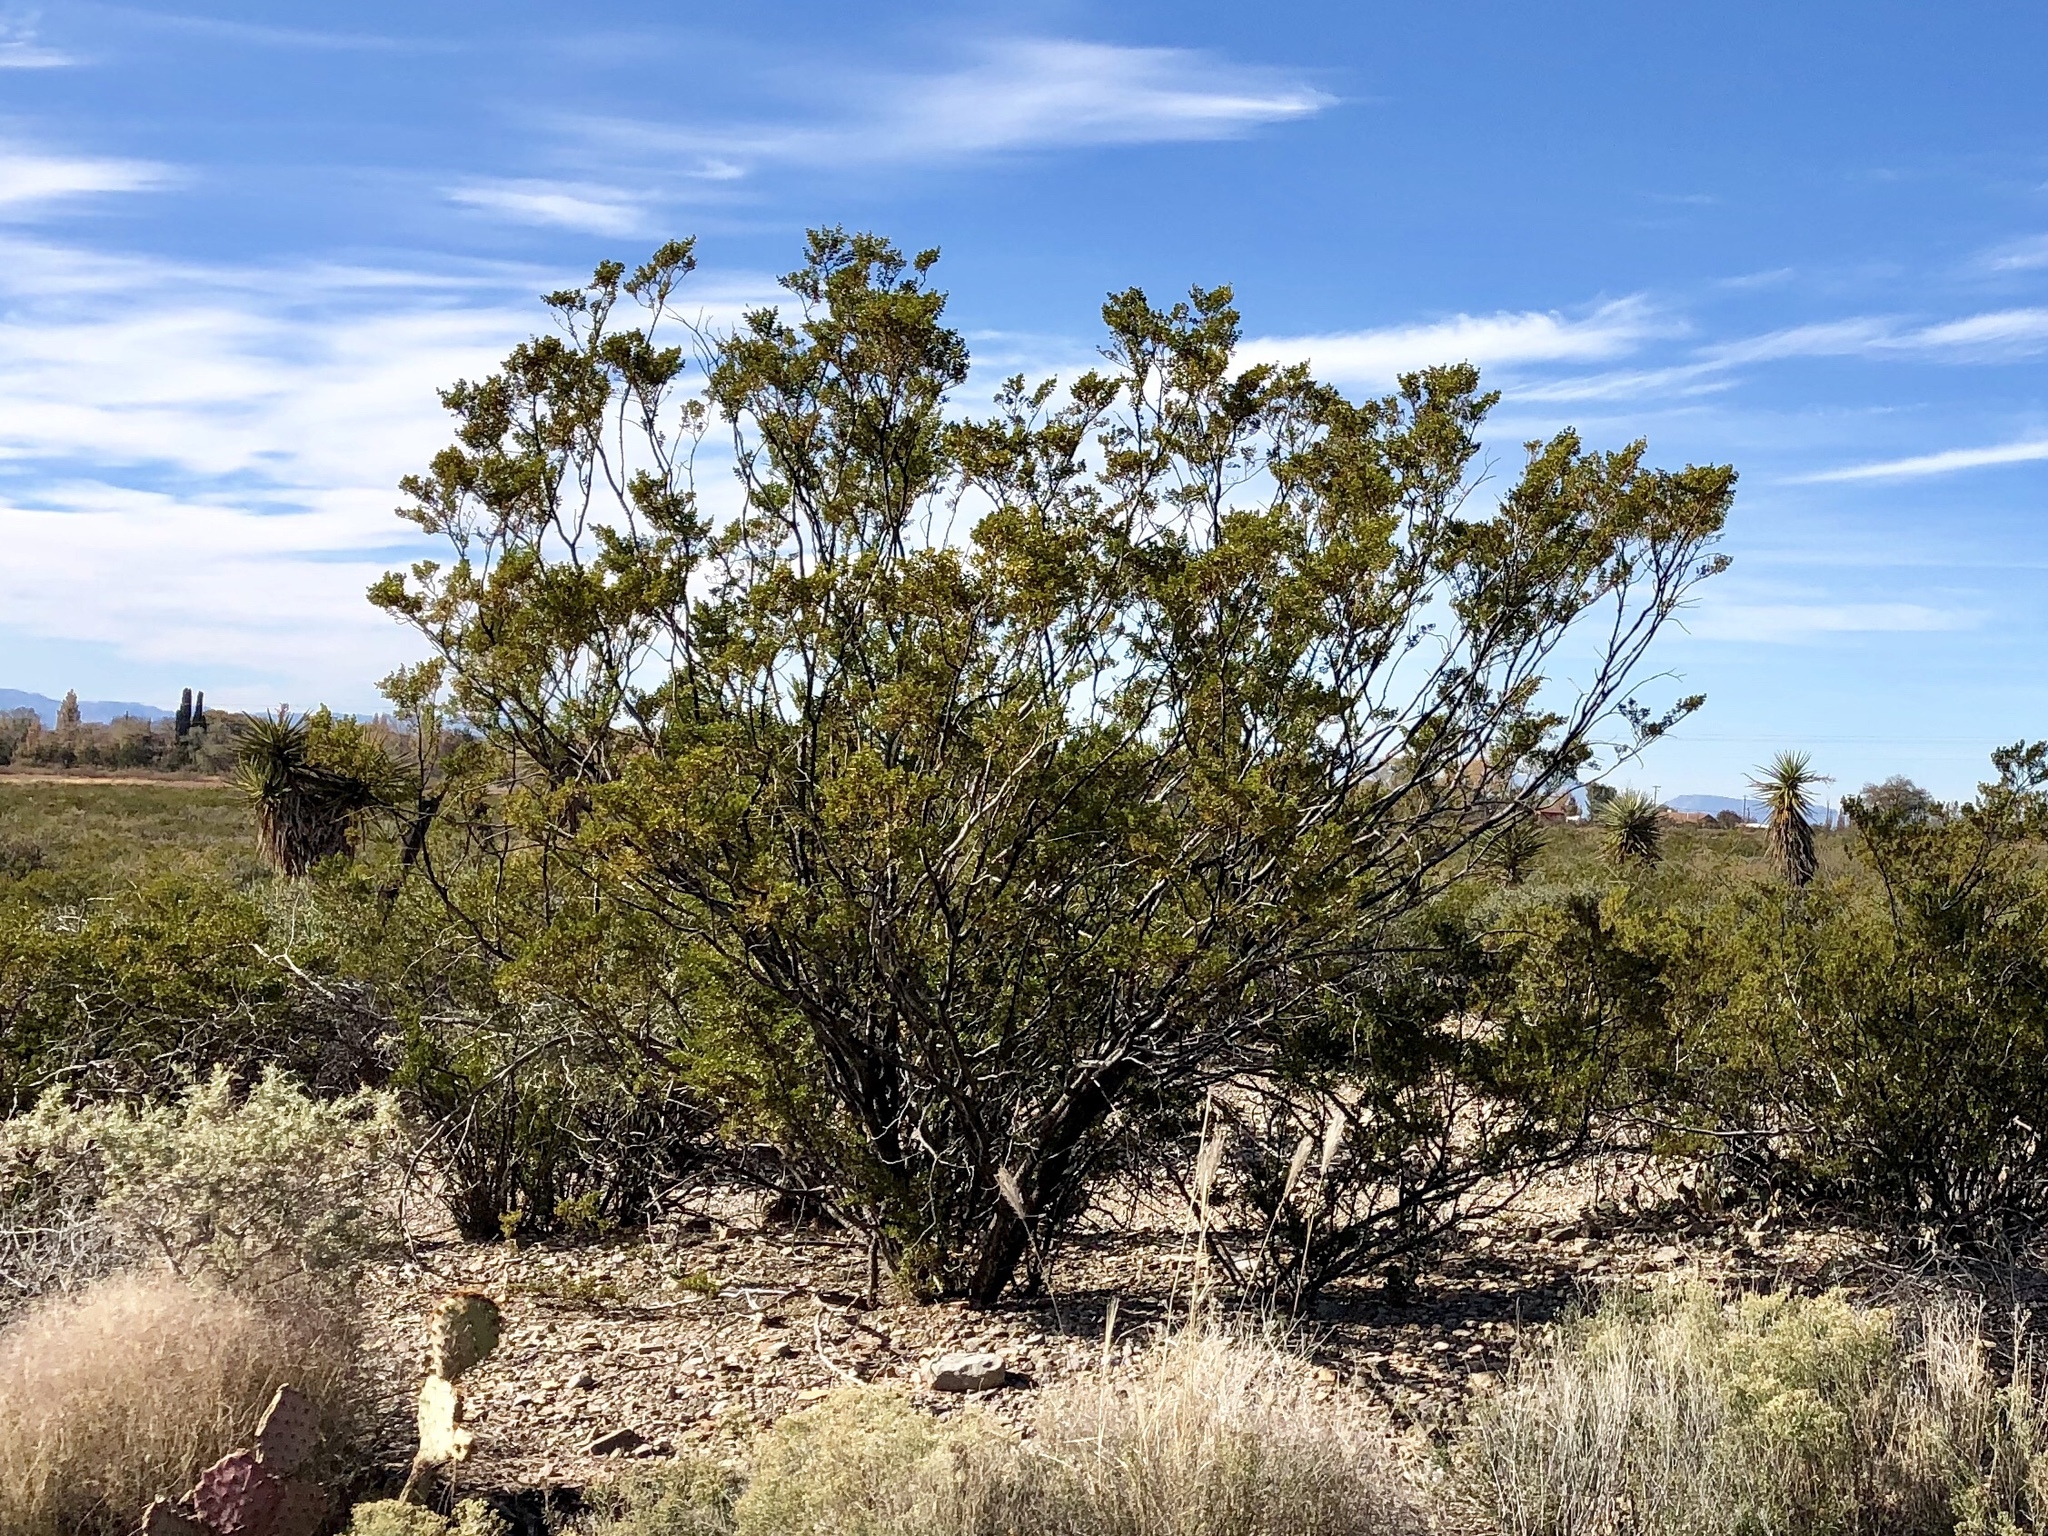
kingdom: Plantae
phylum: Tracheophyta
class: Magnoliopsida
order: Zygophyllales
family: Zygophyllaceae
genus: Larrea
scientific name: Larrea tridentata
